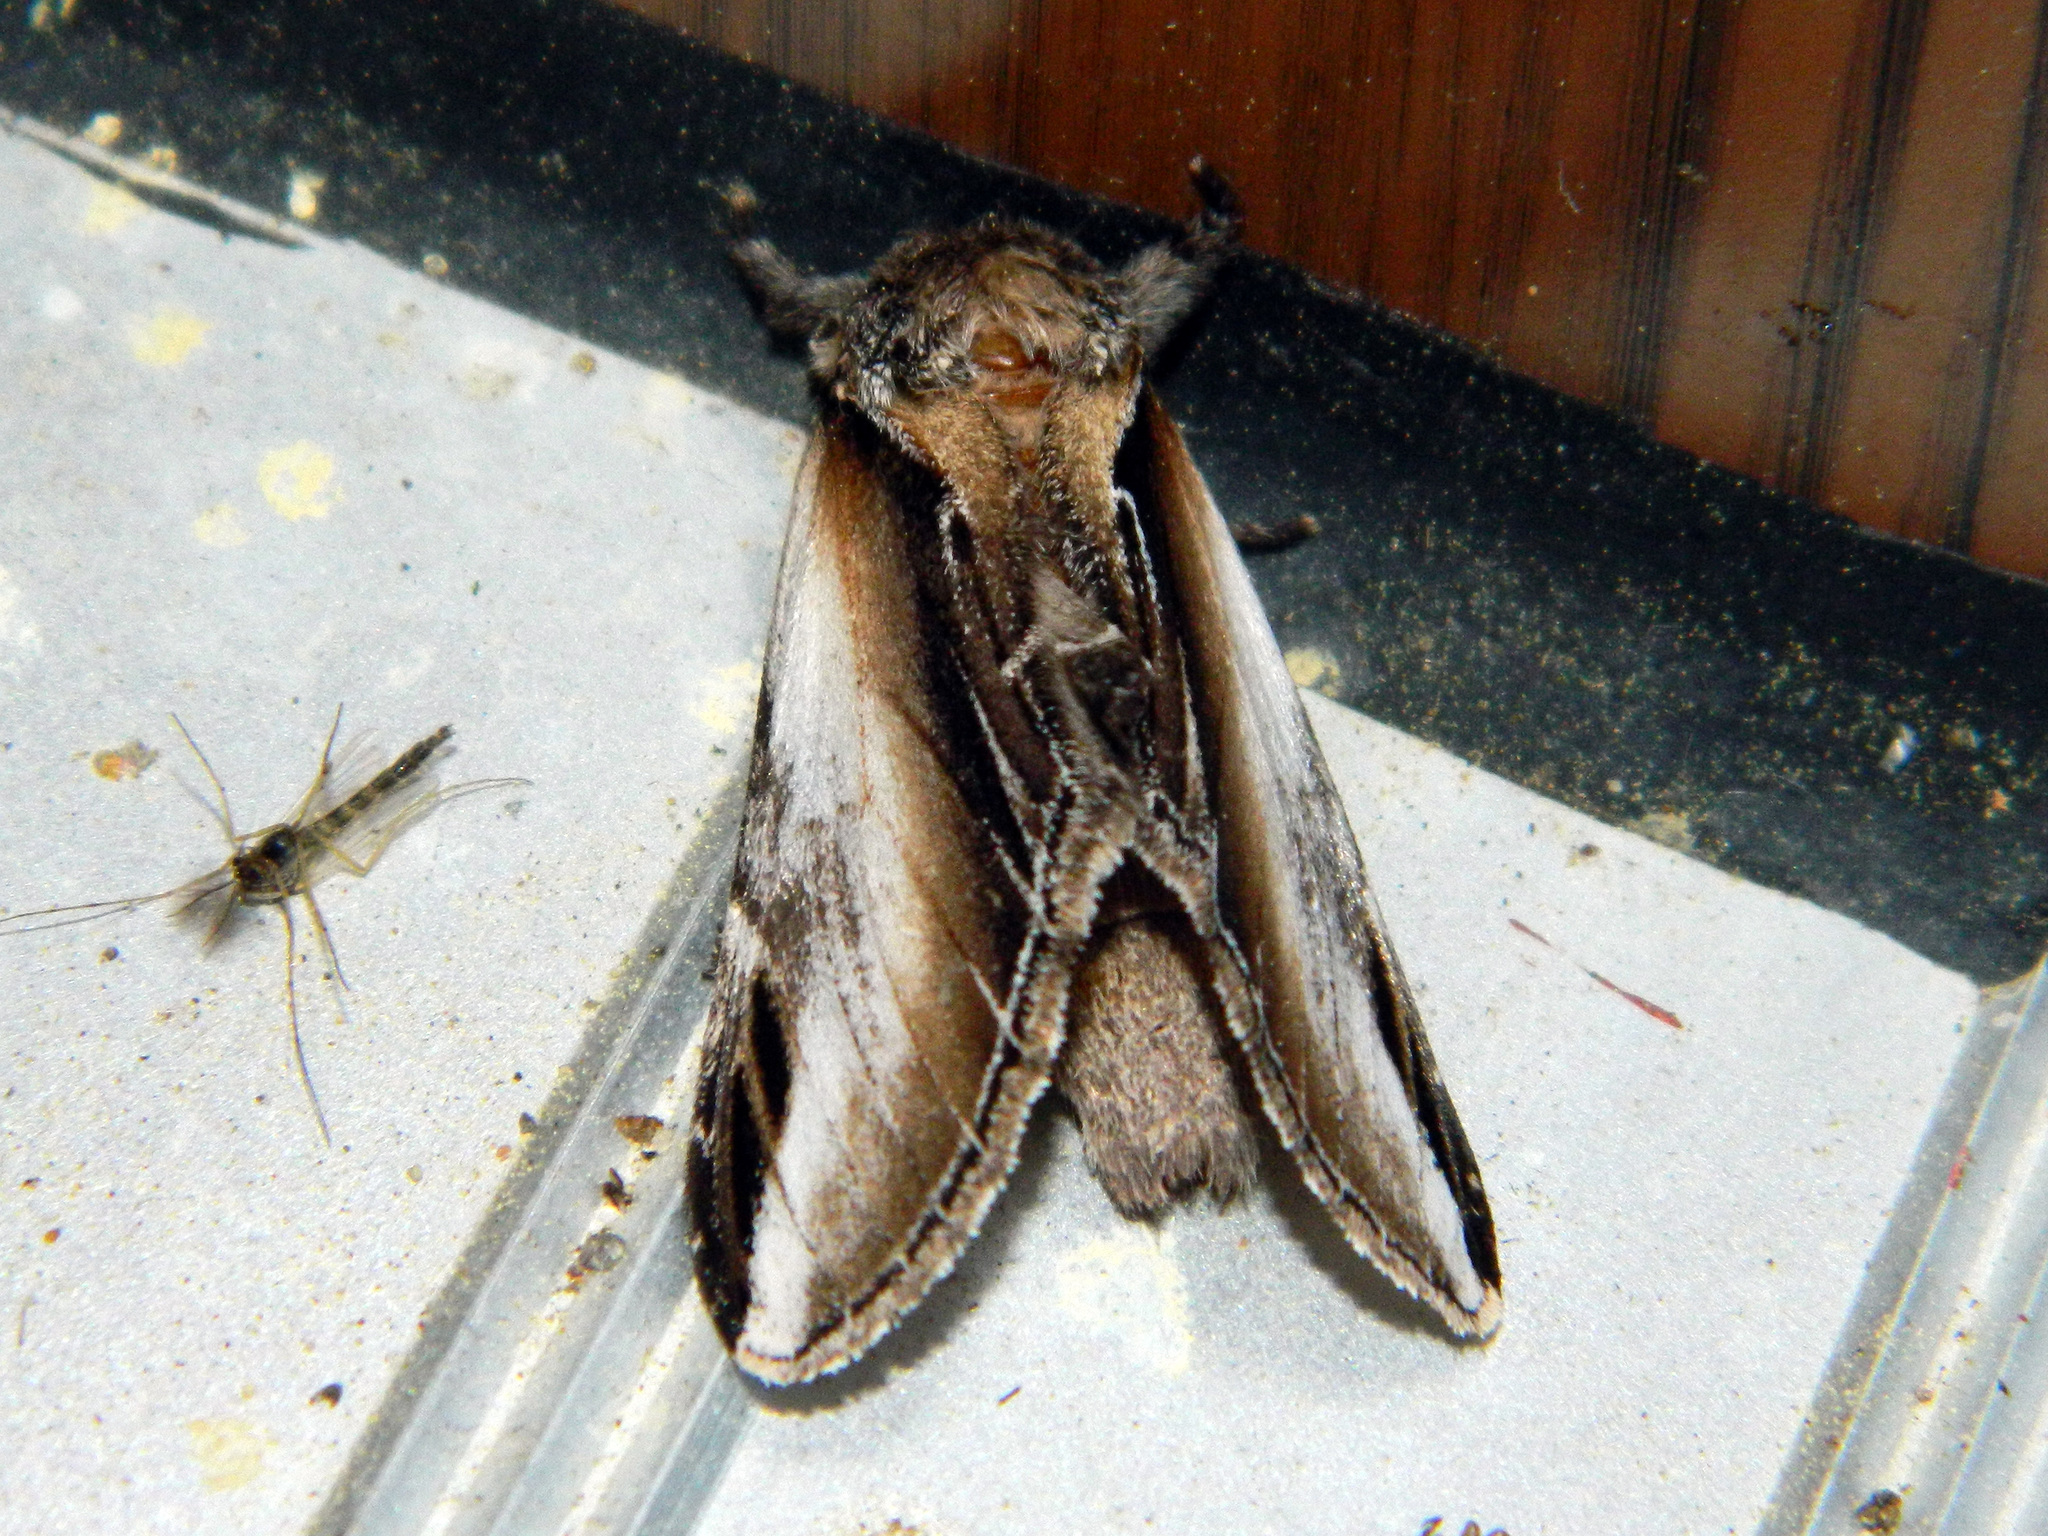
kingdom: Animalia
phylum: Arthropoda
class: Insecta
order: Lepidoptera
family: Notodontidae
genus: Pheosia
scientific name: Pheosia rimosa
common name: Black-rimmed prominent
